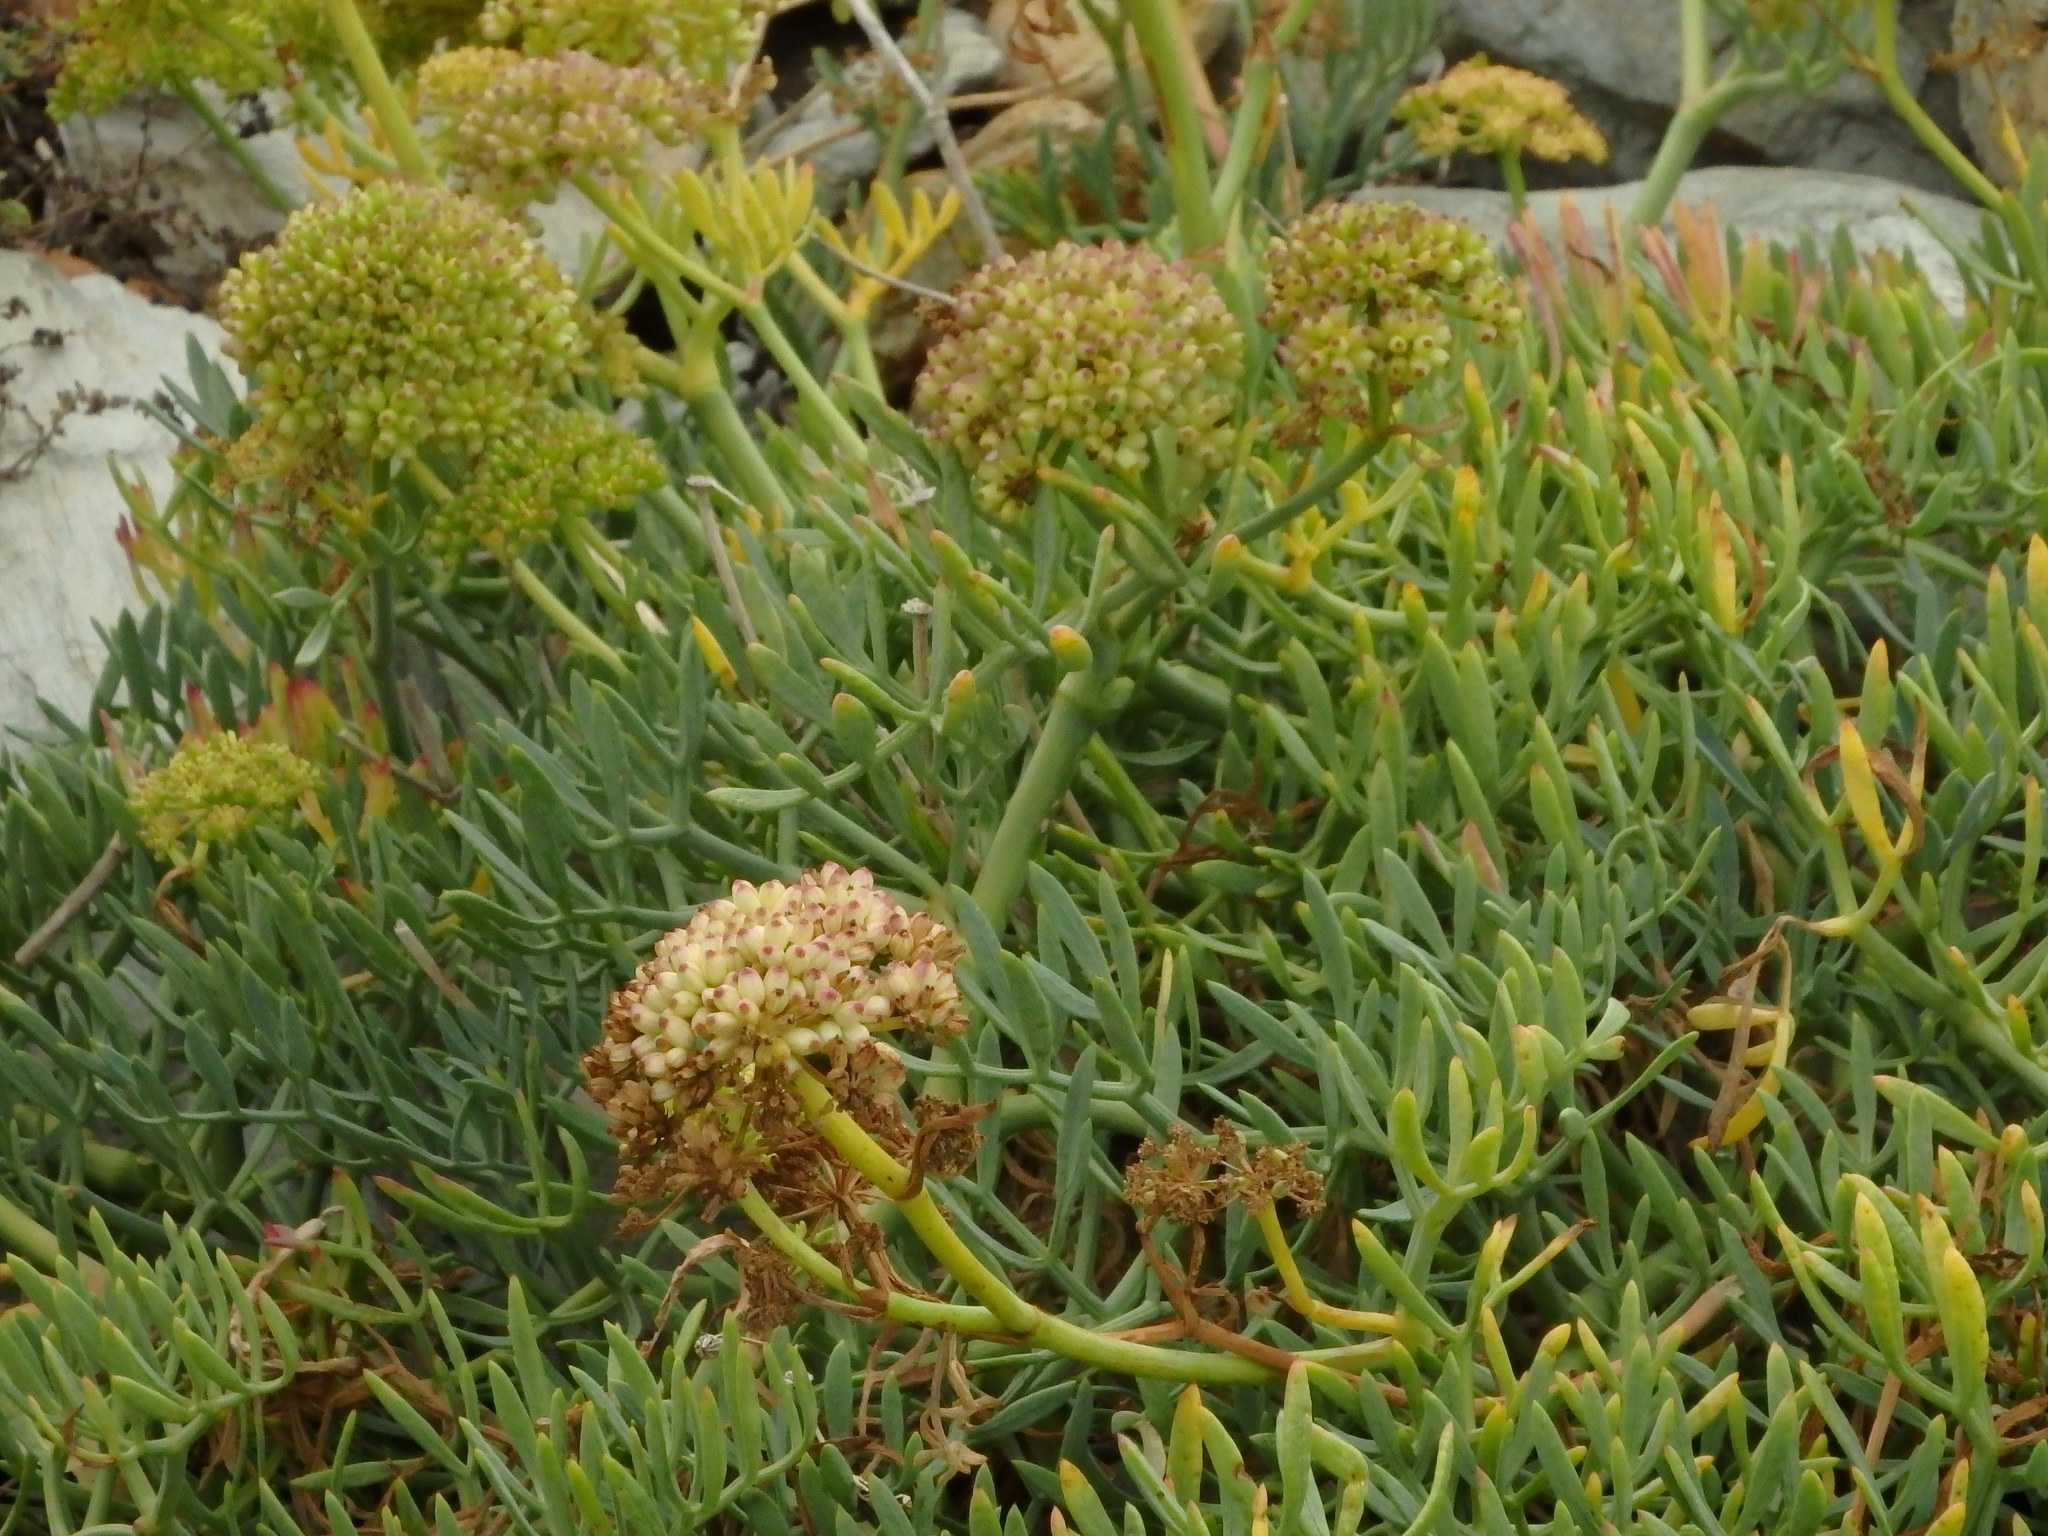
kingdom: Plantae
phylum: Tracheophyta
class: Magnoliopsida
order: Apiales
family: Apiaceae
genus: Crithmum
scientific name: Crithmum maritimum
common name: Rock samphire
